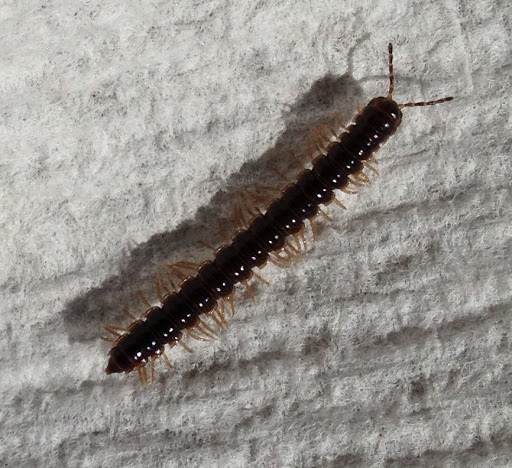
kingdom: Animalia
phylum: Arthropoda
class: Diplopoda
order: Polydesmida
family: Paradoxosomatidae
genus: Oxidus
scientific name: Oxidus gracilis
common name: Greenhouse millipede
